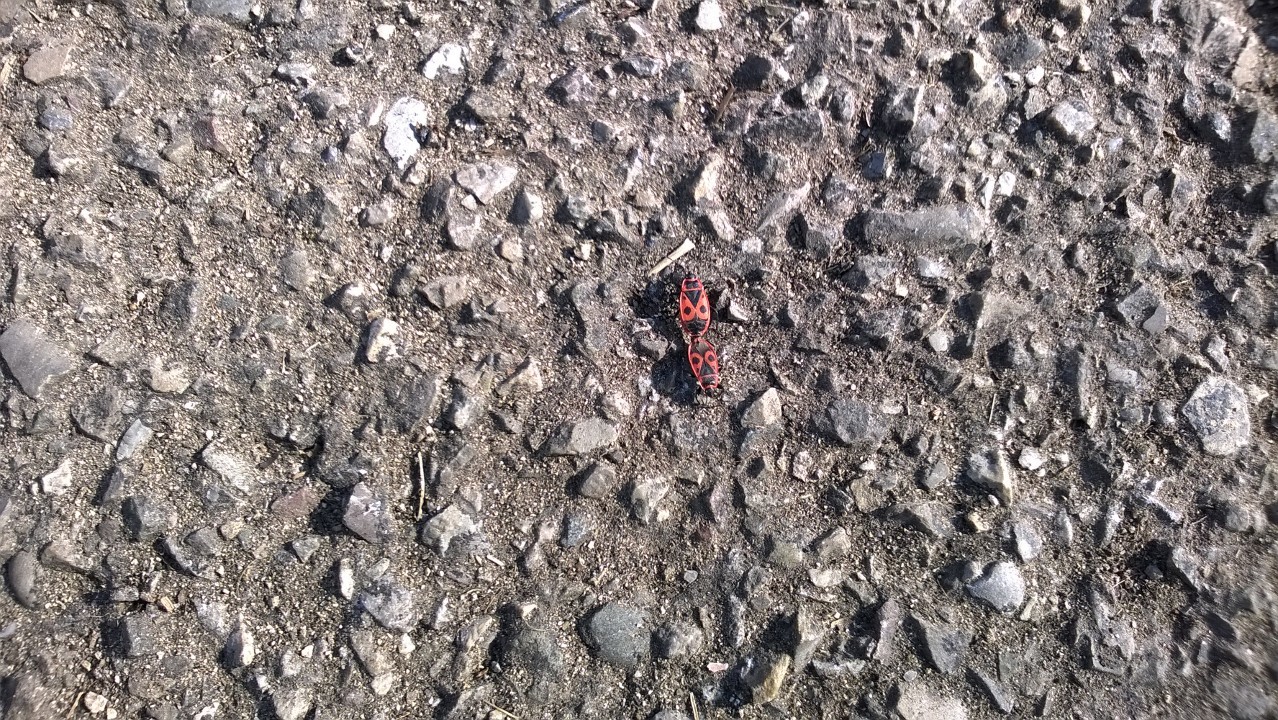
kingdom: Animalia
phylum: Arthropoda
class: Insecta
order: Hemiptera
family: Pyrrhocoridae
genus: Pyrrhocoris
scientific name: Pyrrhocoris apterus
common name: Firebug
